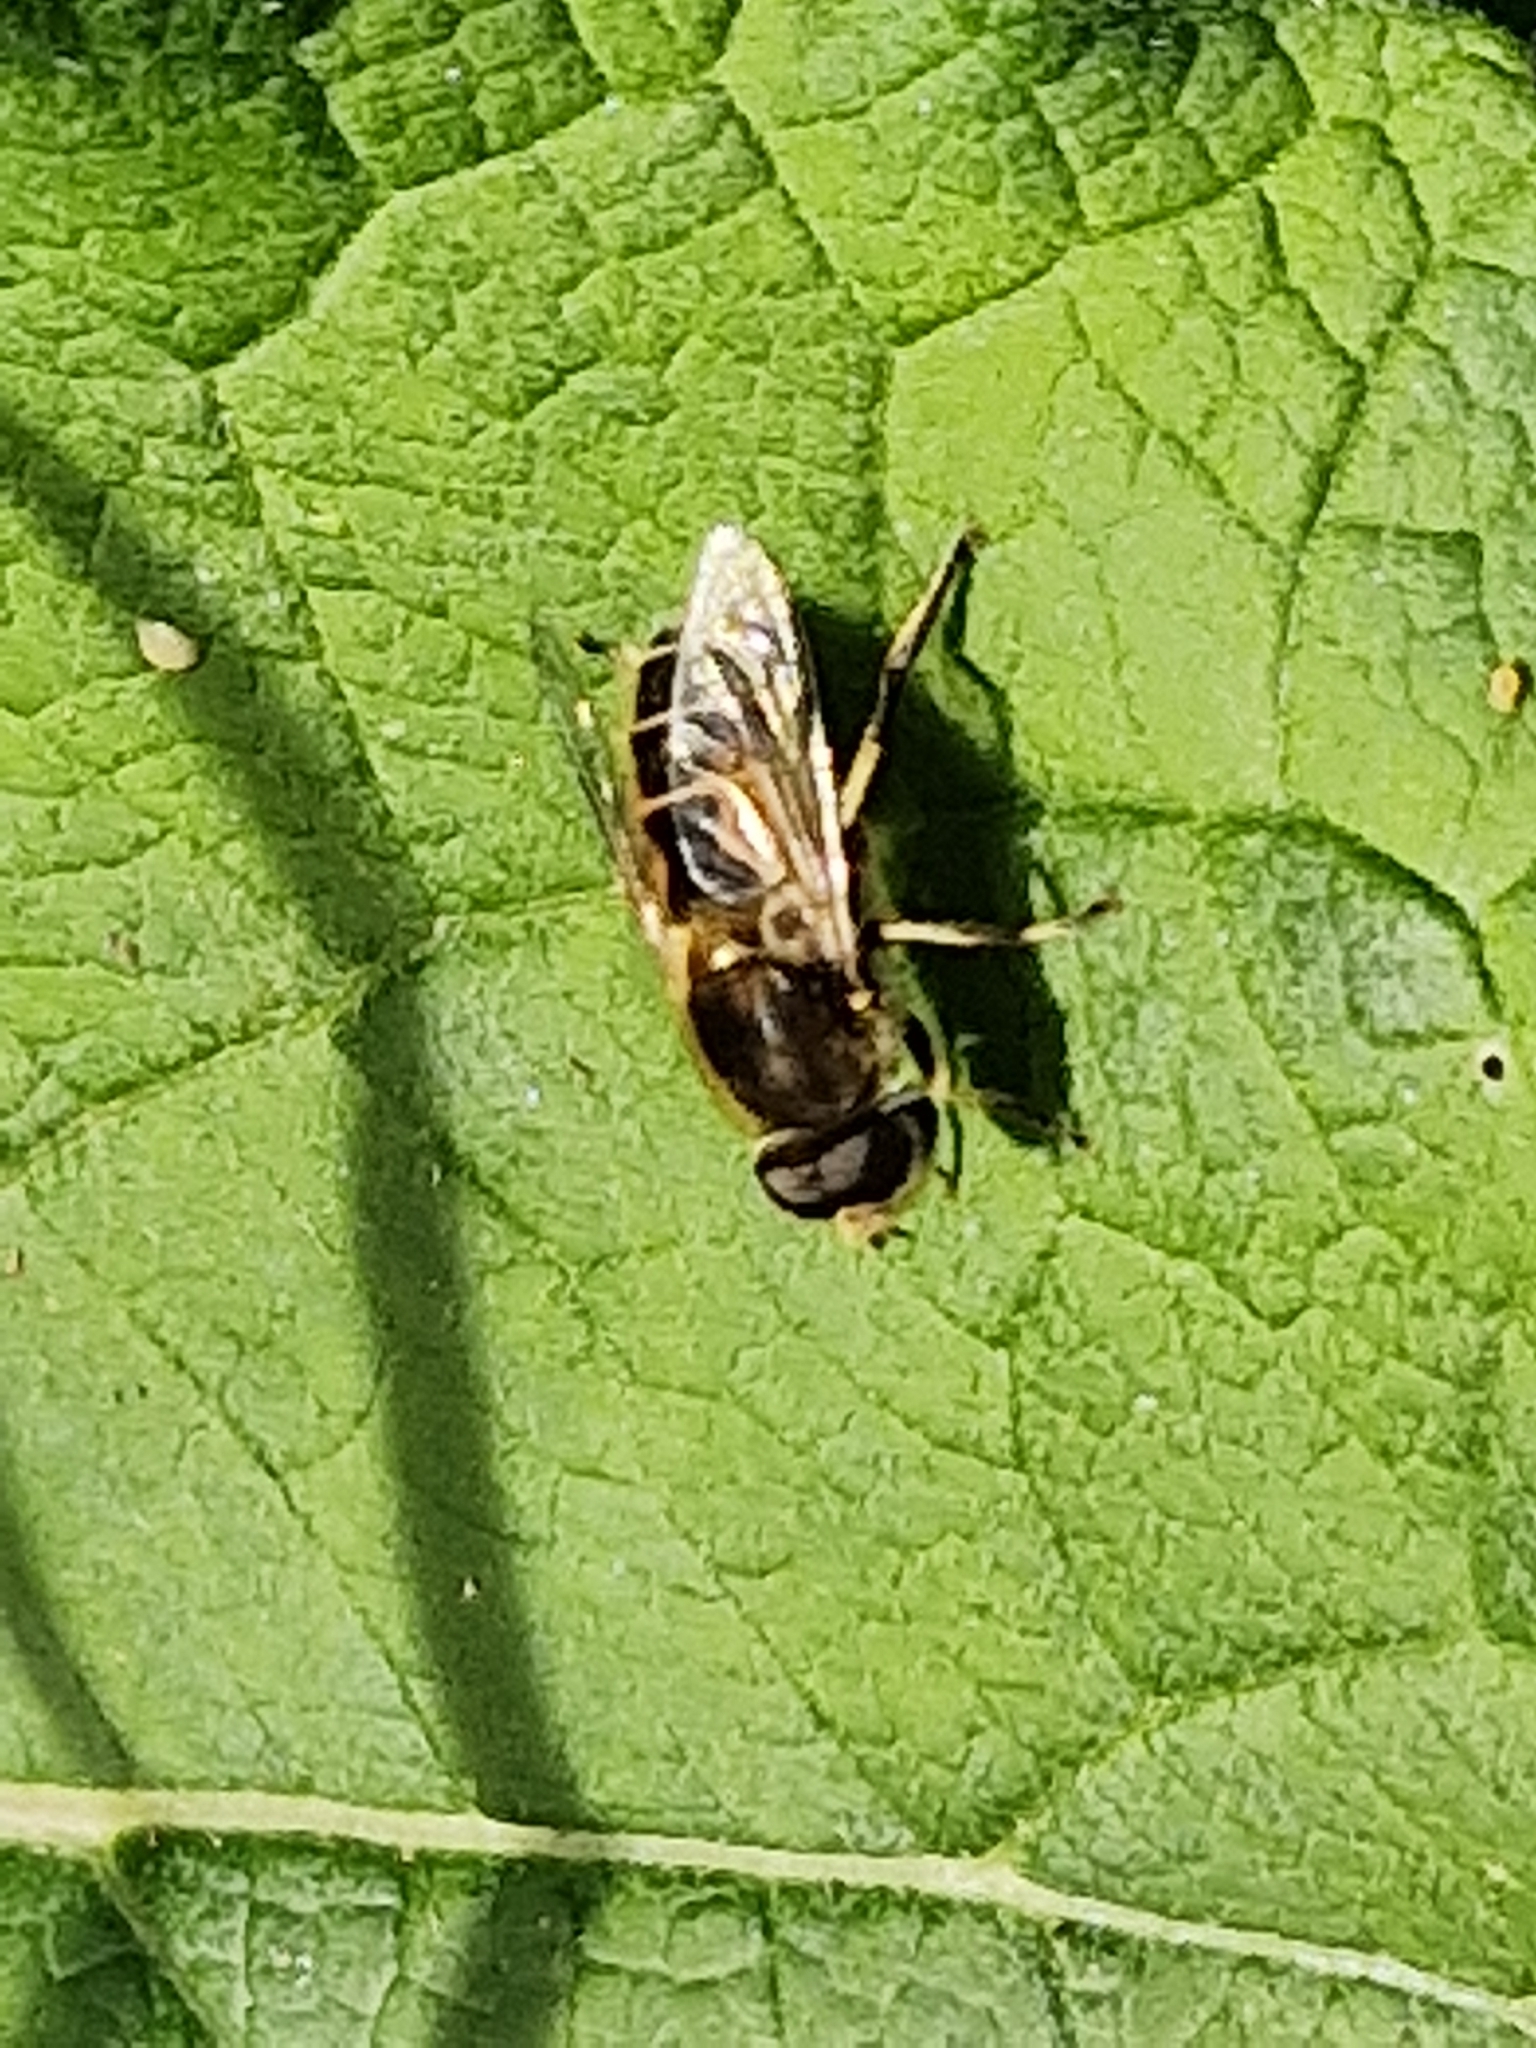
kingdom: Animalia
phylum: Arthropoda
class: Insecta
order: Diptera
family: Syrphidae
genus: Eristalis
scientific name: Eristalis arbustorum
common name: Hover fly
